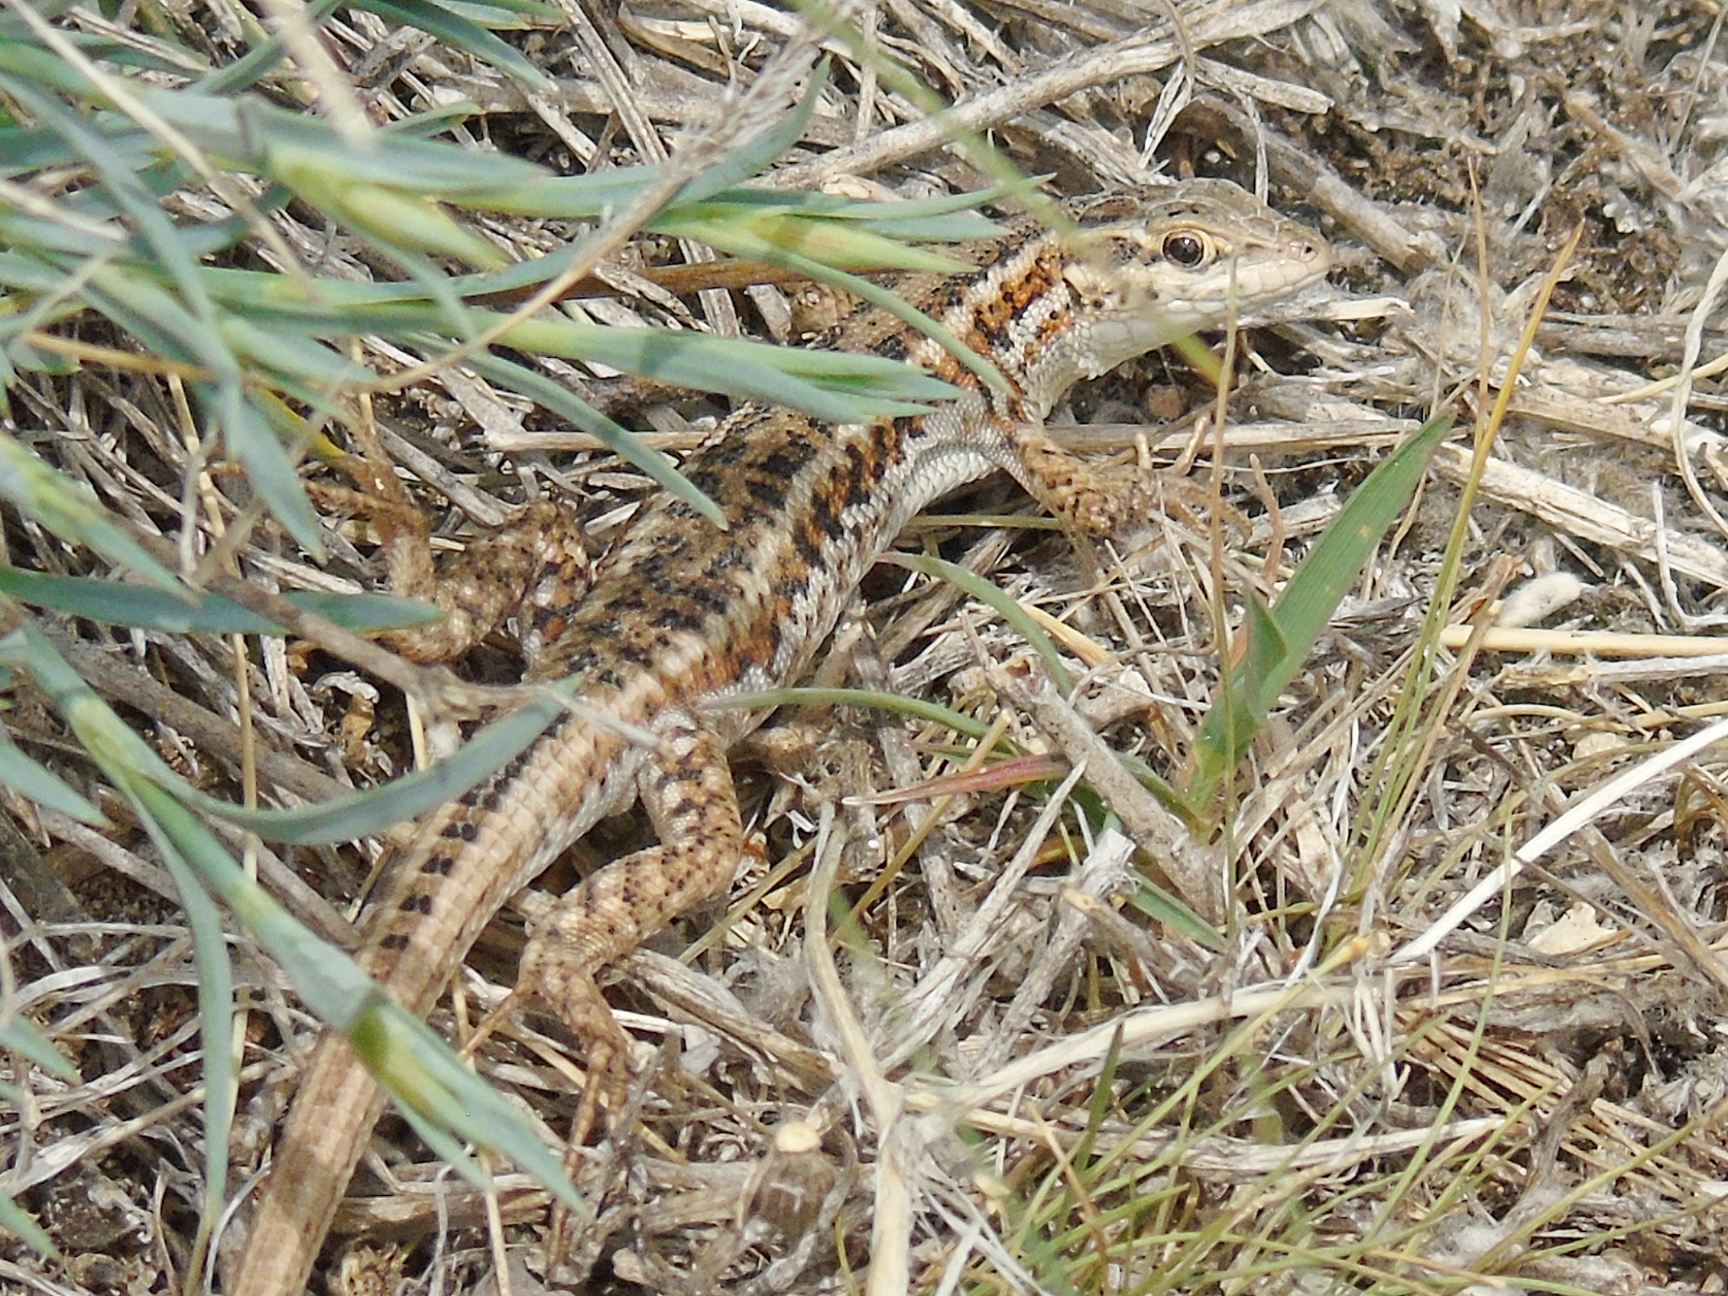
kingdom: Animalia
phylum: Chordata
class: Squamata
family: Lacertidae
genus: Ophisops
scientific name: Ophisops elegans
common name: Snake-eyed lizard
